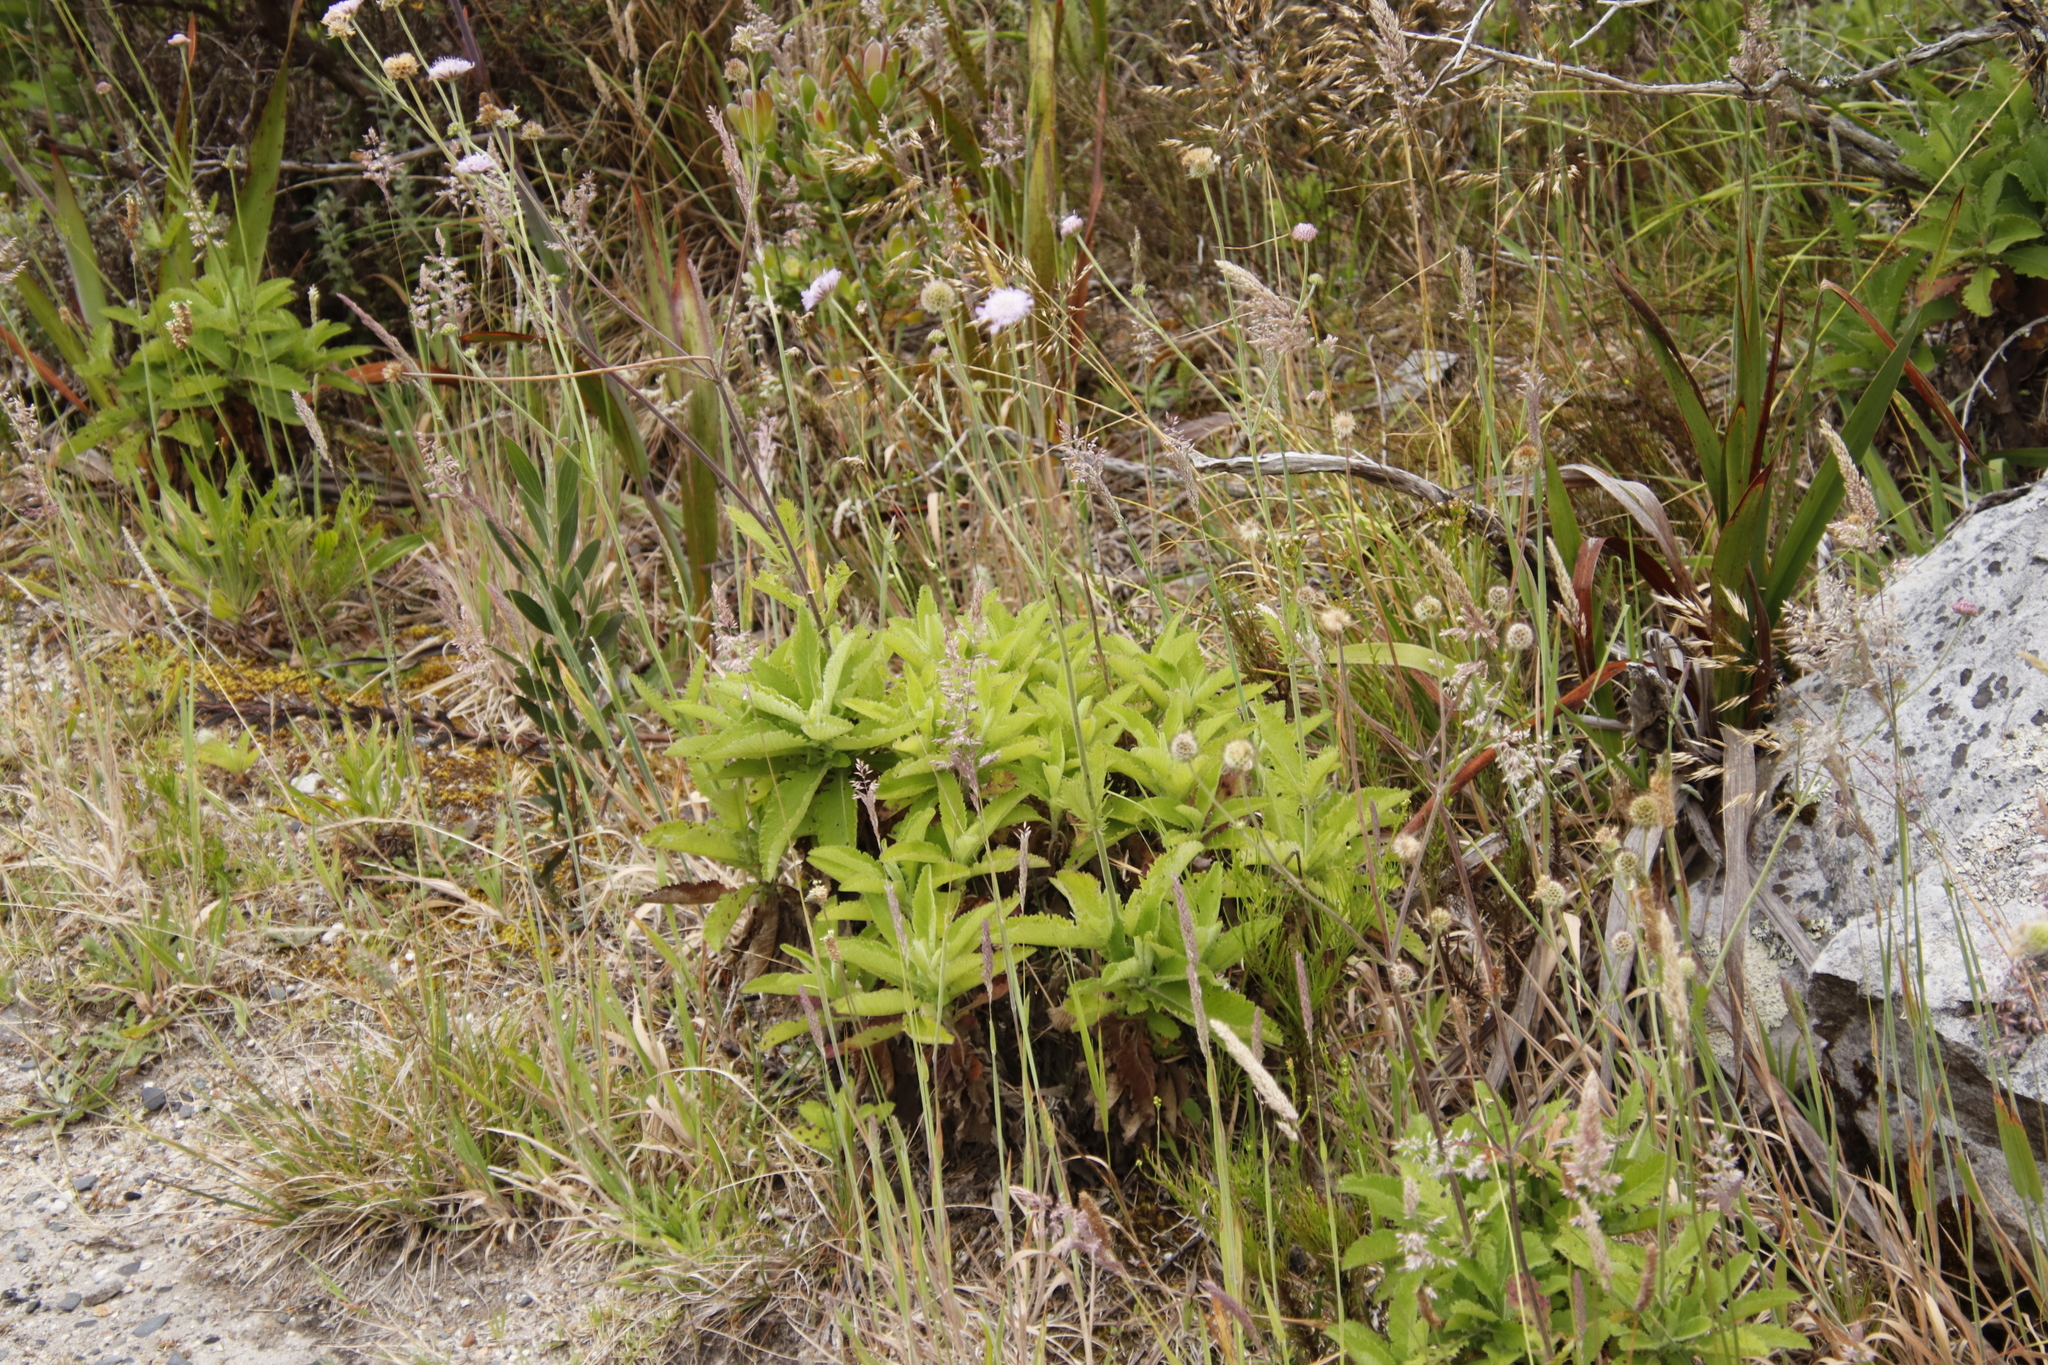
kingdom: Plantae
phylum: Tracheophyta
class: Magnoliopsida
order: Dipsacales
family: Caprifoliaceae
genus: Scabiosa
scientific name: Scabiosa africana
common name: Cape scabious
